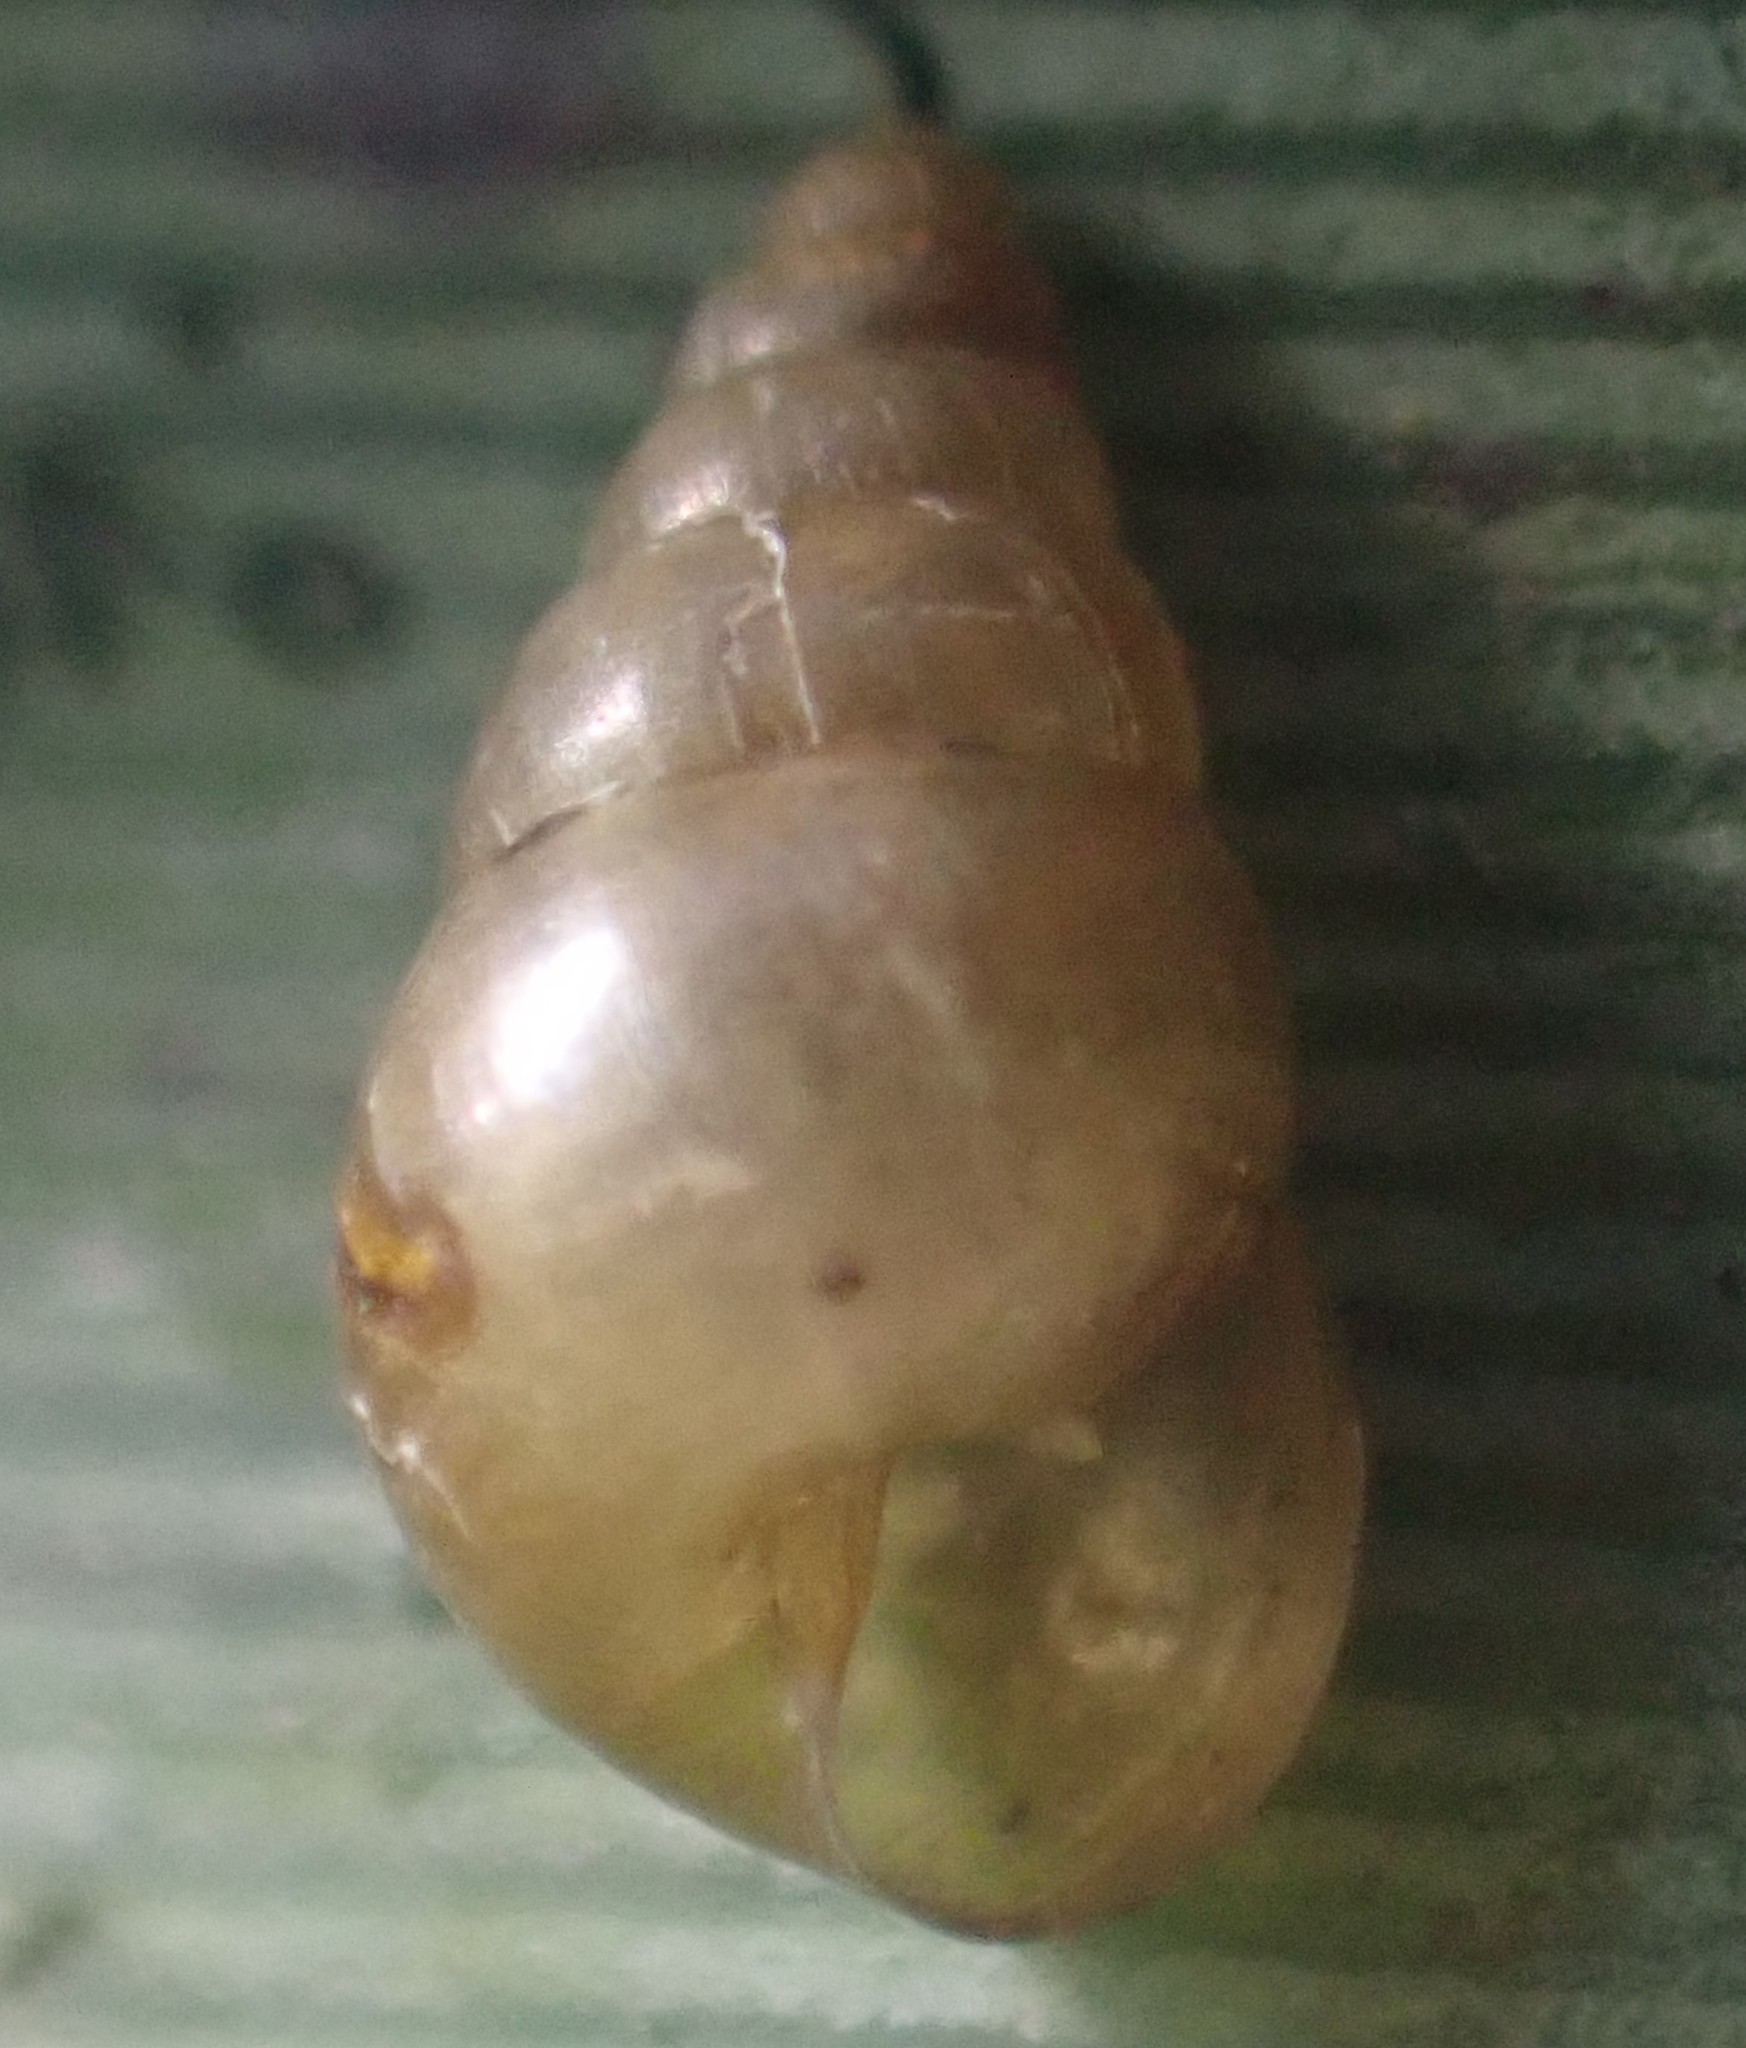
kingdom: Animalia
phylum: Mollusca
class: Gastropoda
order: Stylommatophora
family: Achatinellidae
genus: Tornatellides
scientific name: Tornatellides subperforatus
